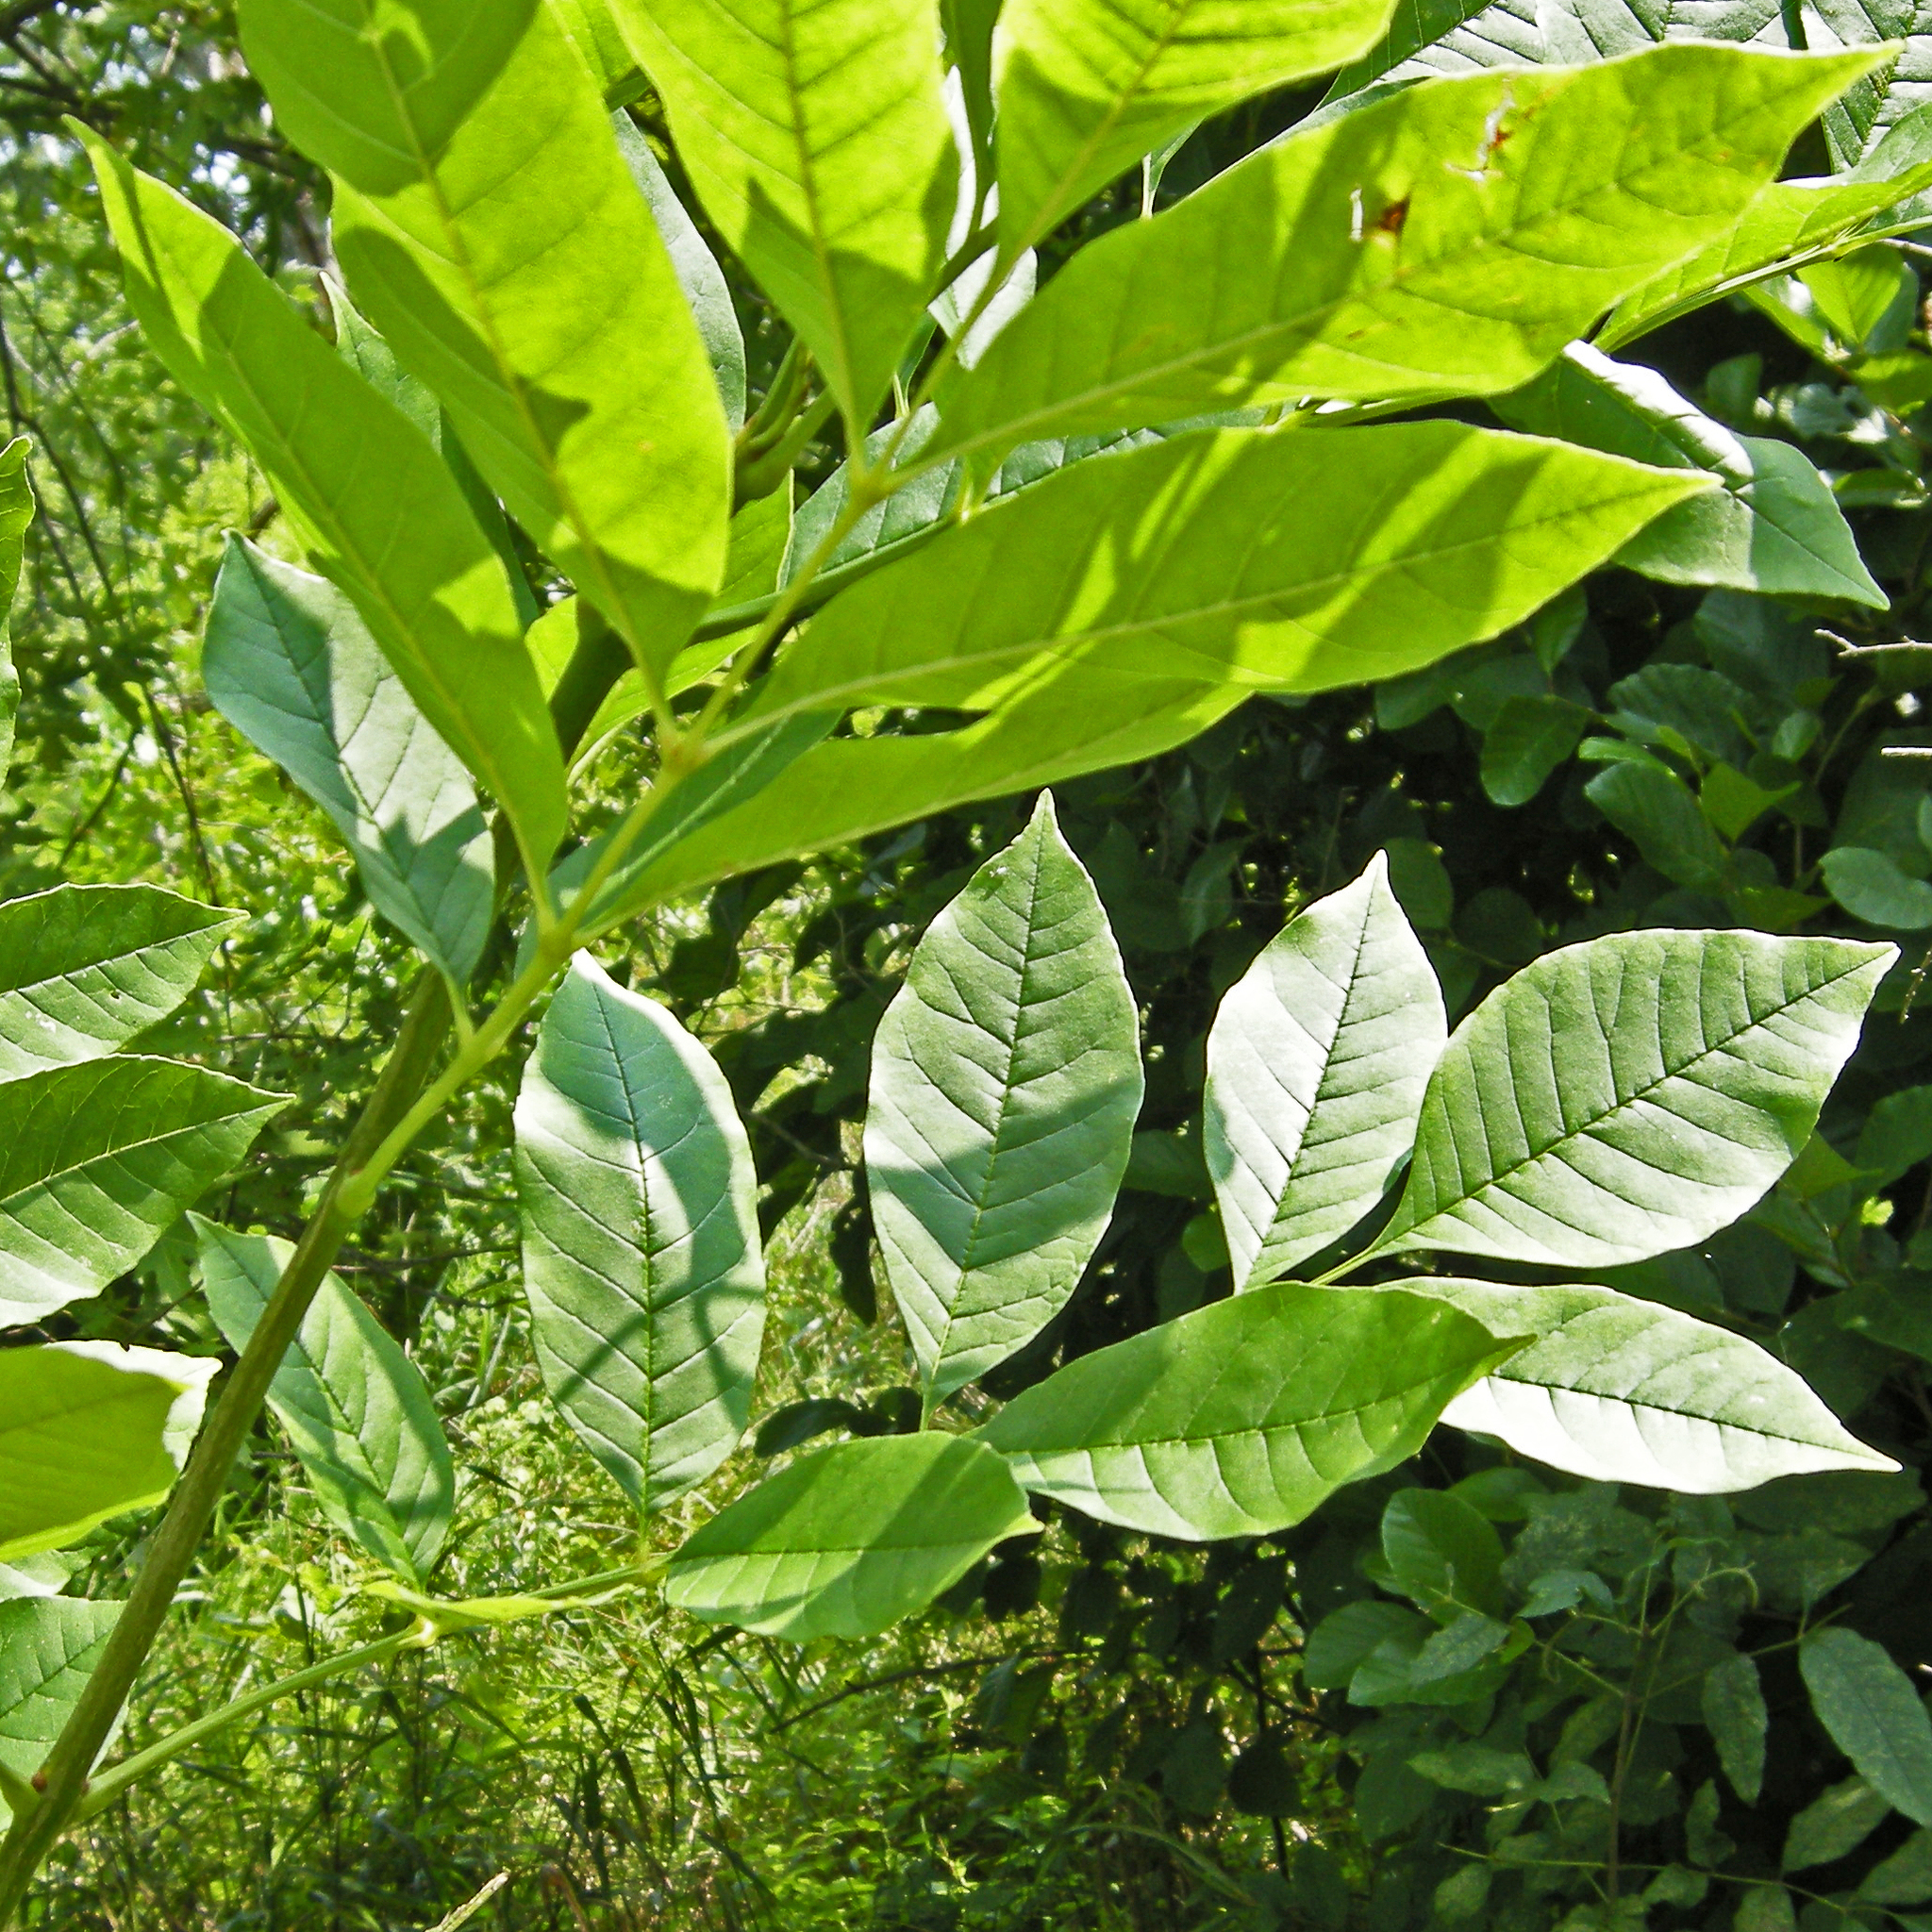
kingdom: Plantae
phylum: Tracheophyta
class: Magnoliopsida
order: Lamiales
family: Oleaceae
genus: Fraxinus
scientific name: Fraxinus pennsylvanica
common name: Green ash
